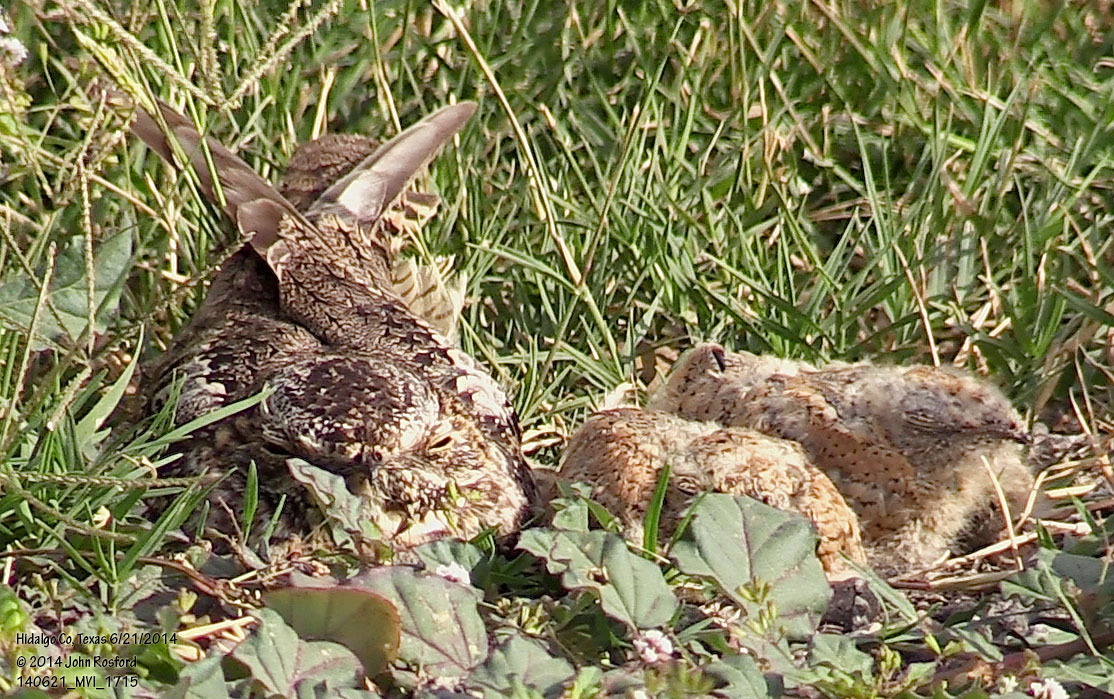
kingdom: Animalia
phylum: Chordata
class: Aves
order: Caprimulgiformes
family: Caprimulgidae
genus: Chordeiles
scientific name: Chordeiles acutipennis
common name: Lesser nighthawk
